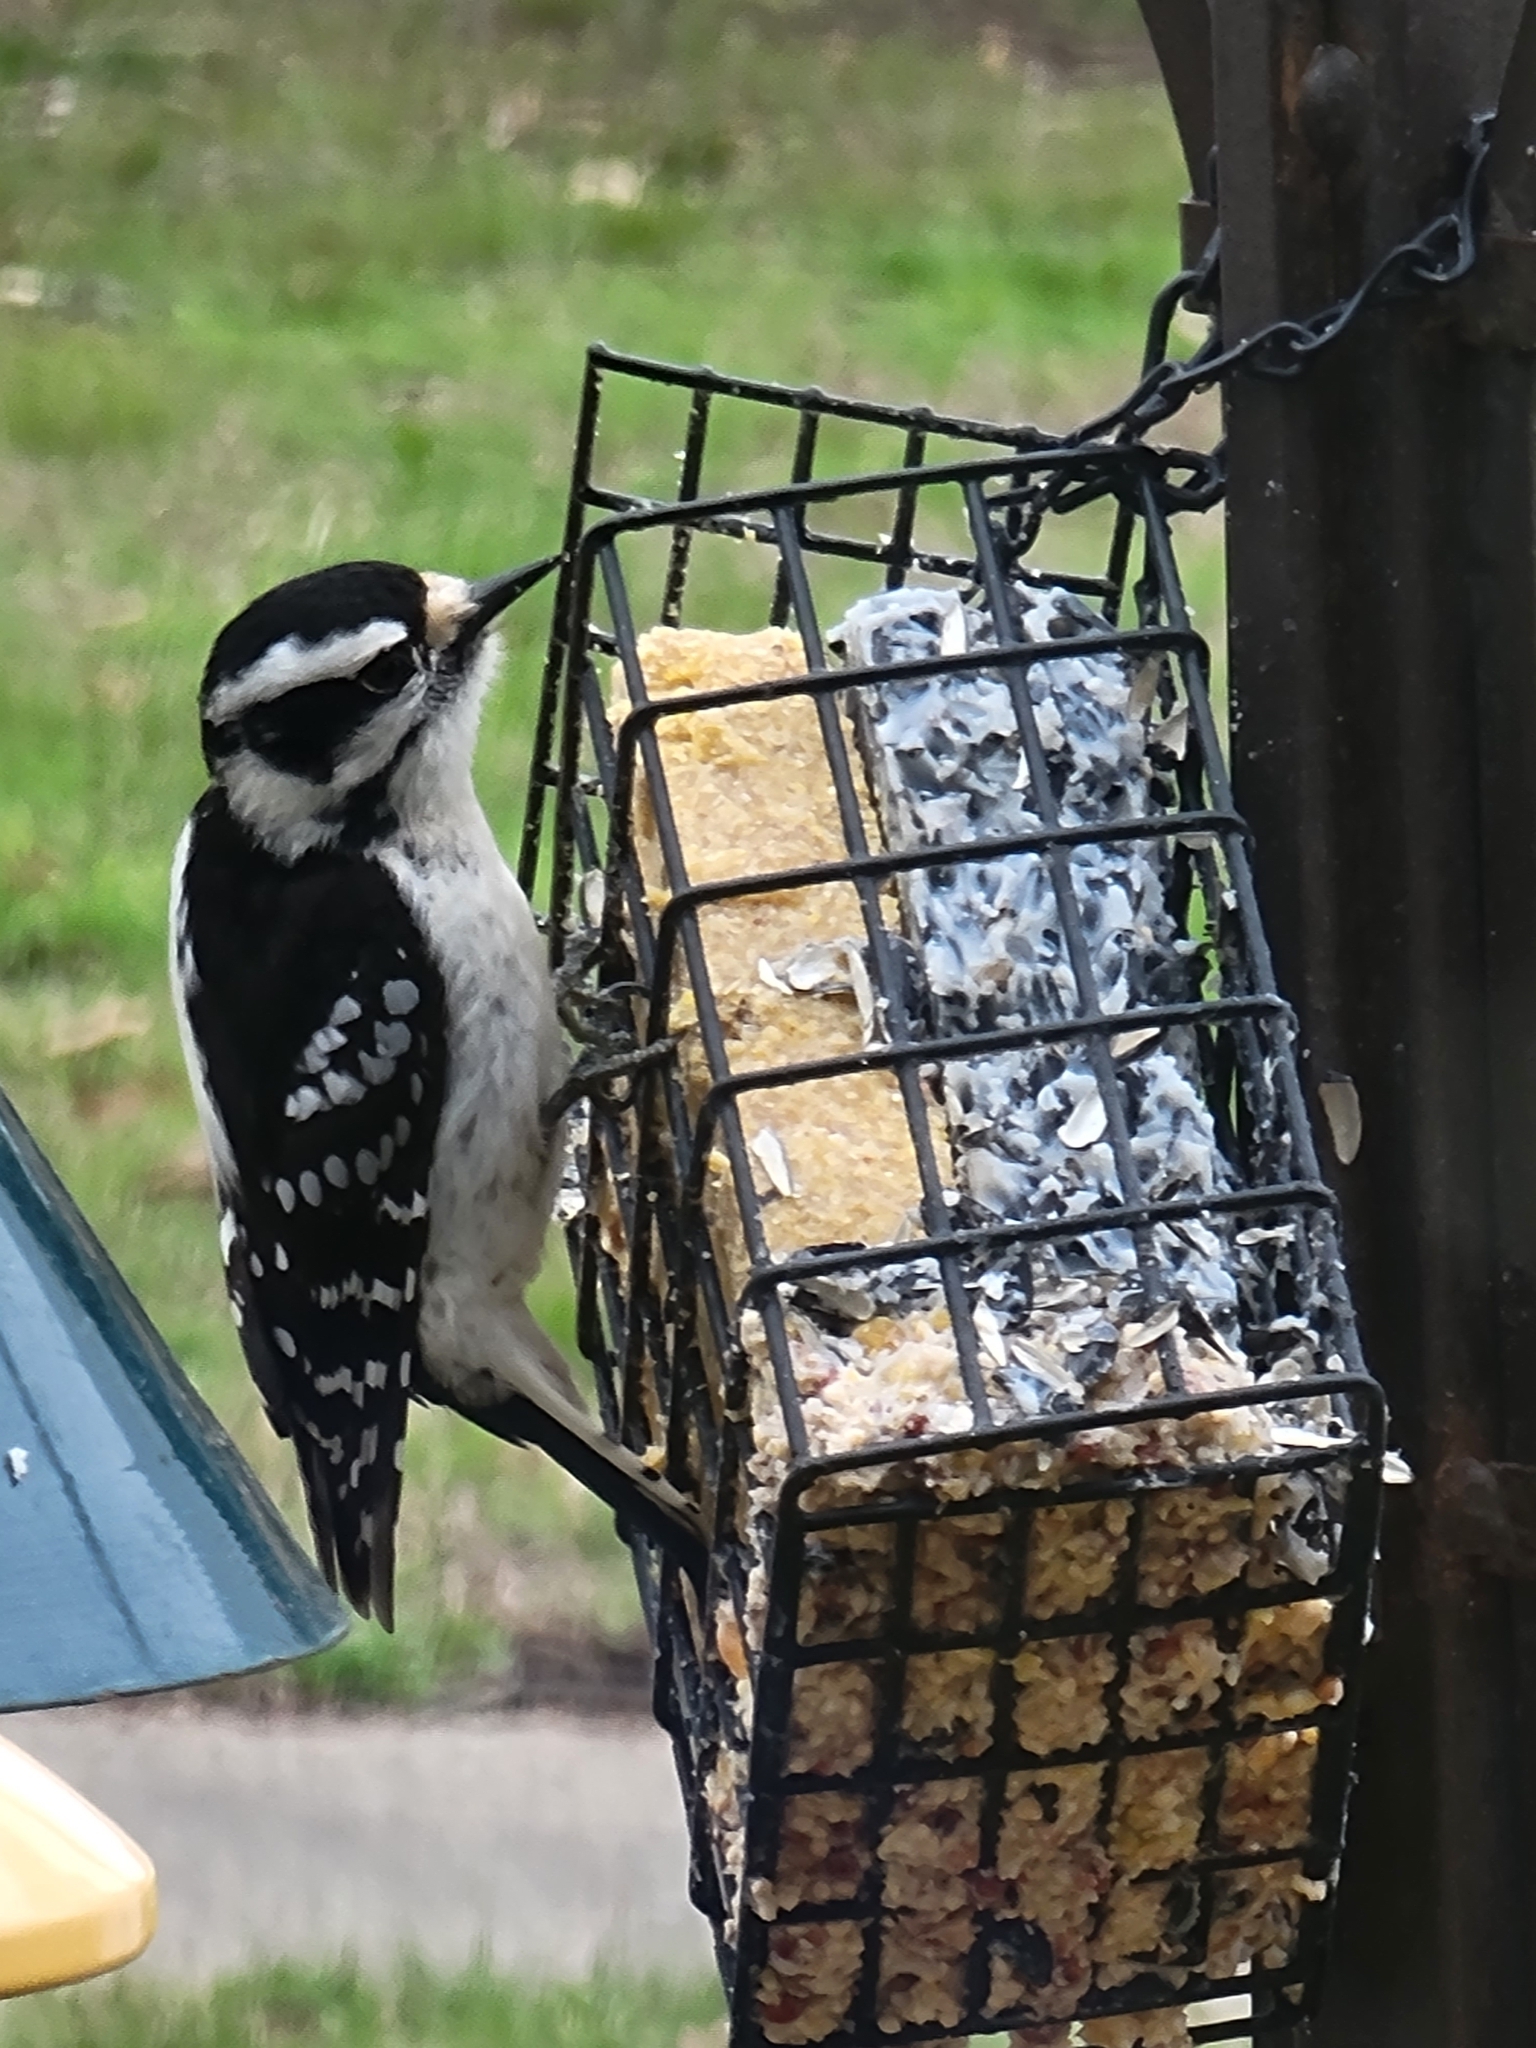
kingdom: Animalia
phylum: Chordata
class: Aves
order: Piciformes
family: Picidae
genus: Dryobates
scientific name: Dryobates pubescens
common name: Downy woodpecker
